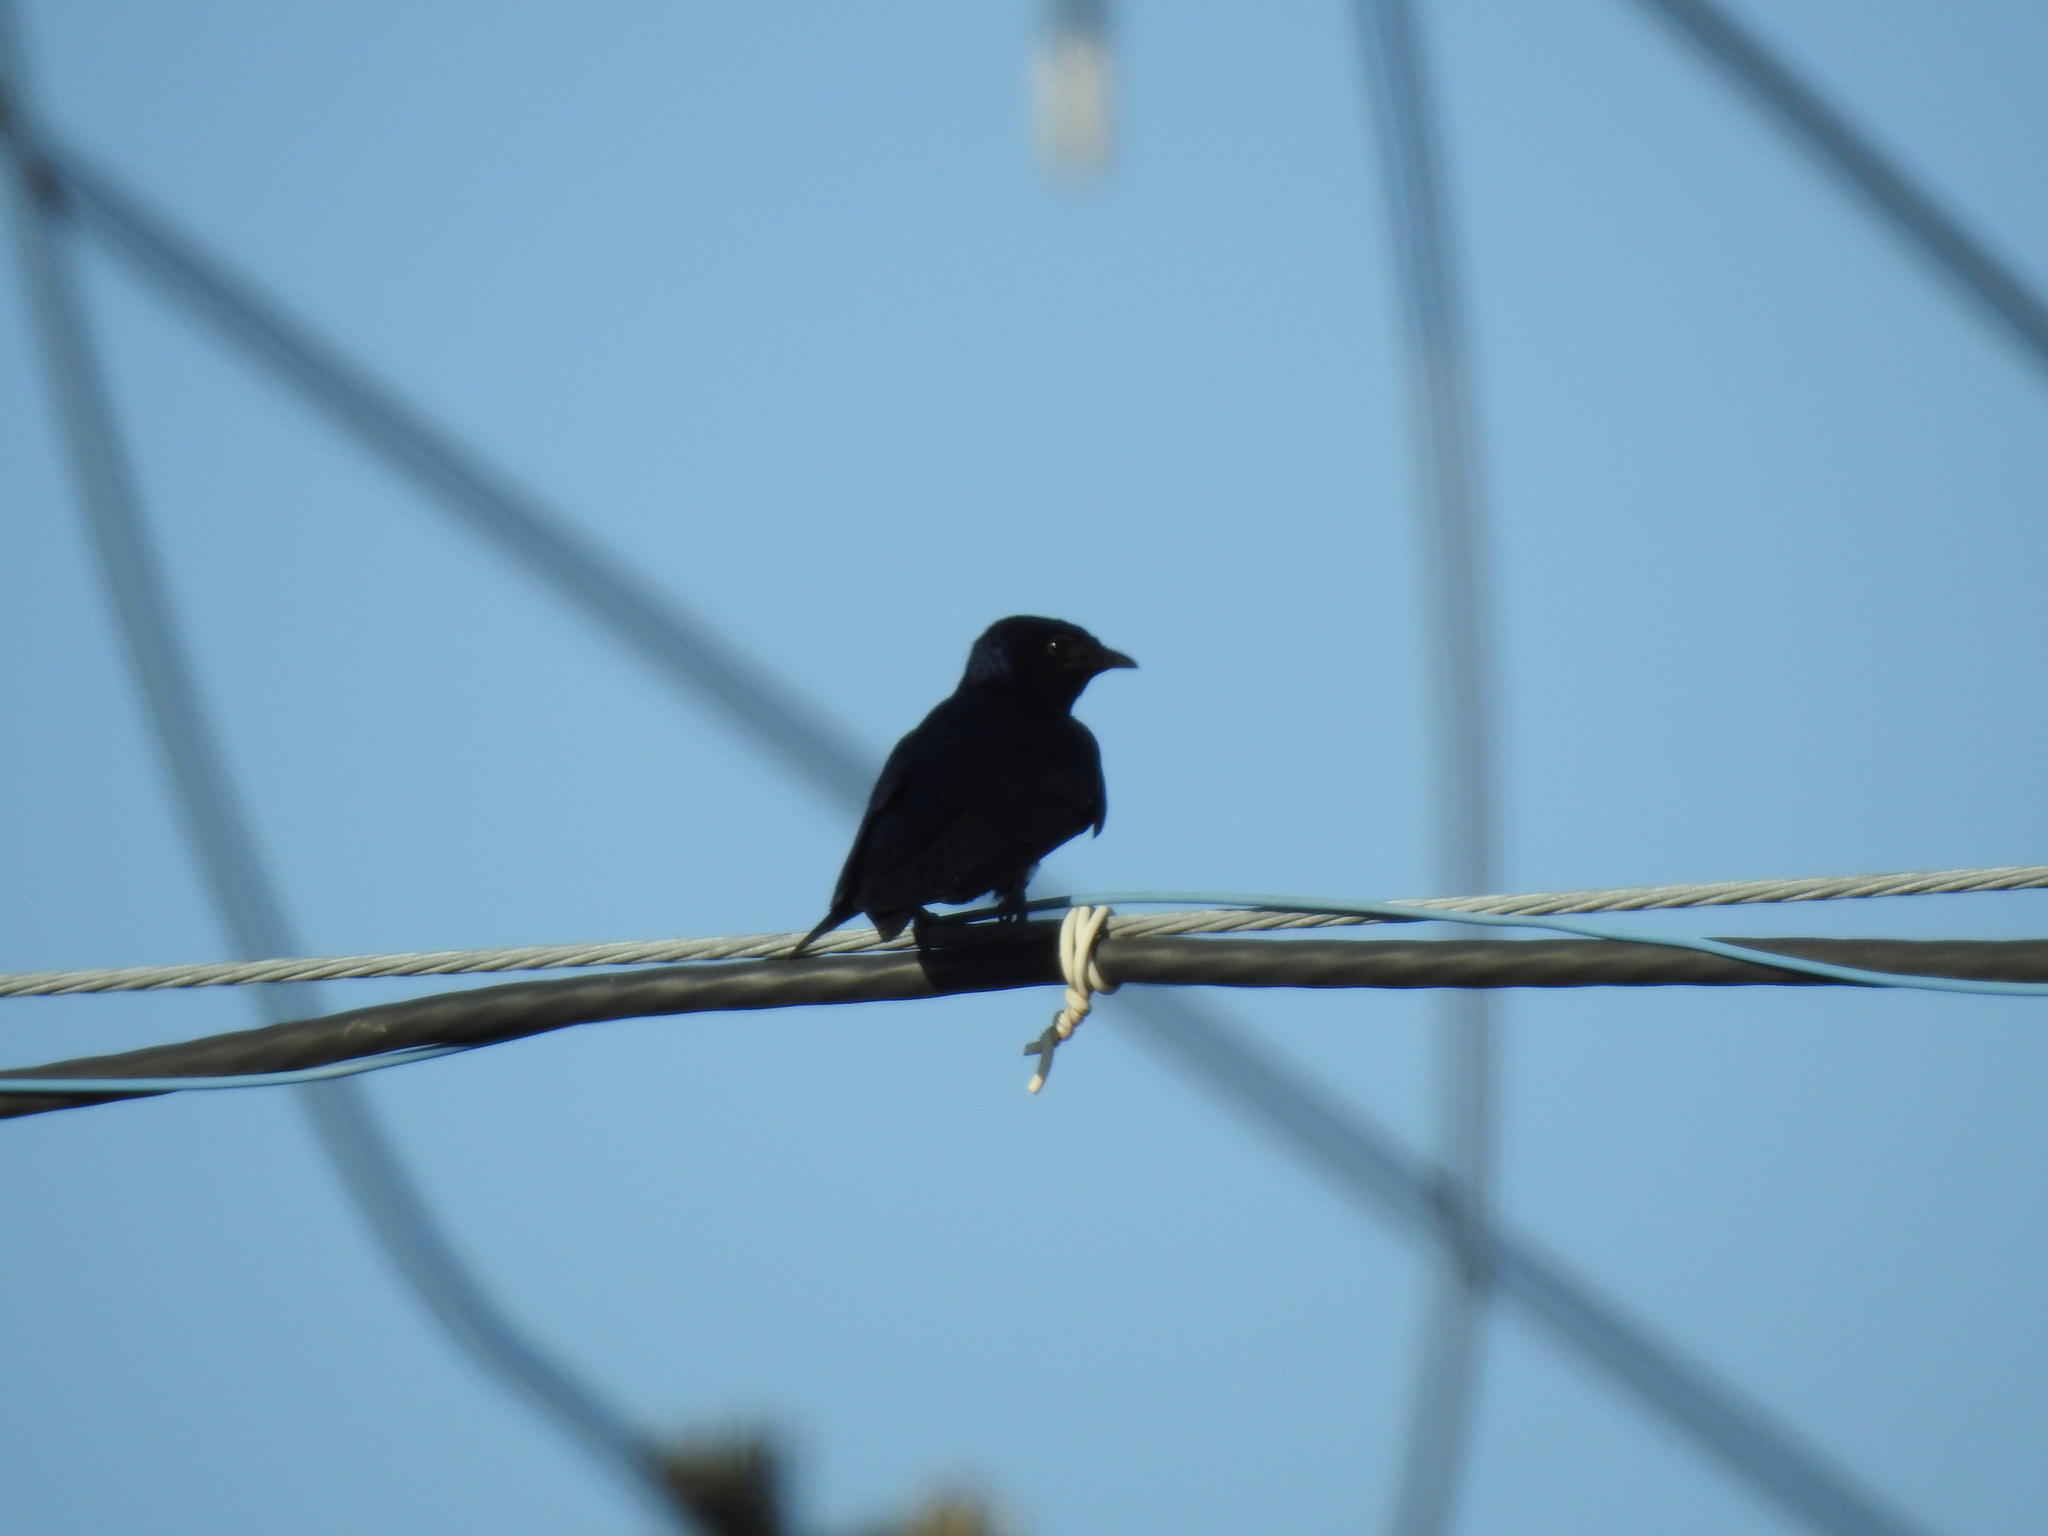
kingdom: Animalia
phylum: Chordata
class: Aves
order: Passeriformes
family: Hirundinidae
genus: Progne
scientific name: Progne subis
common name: Purple martin
